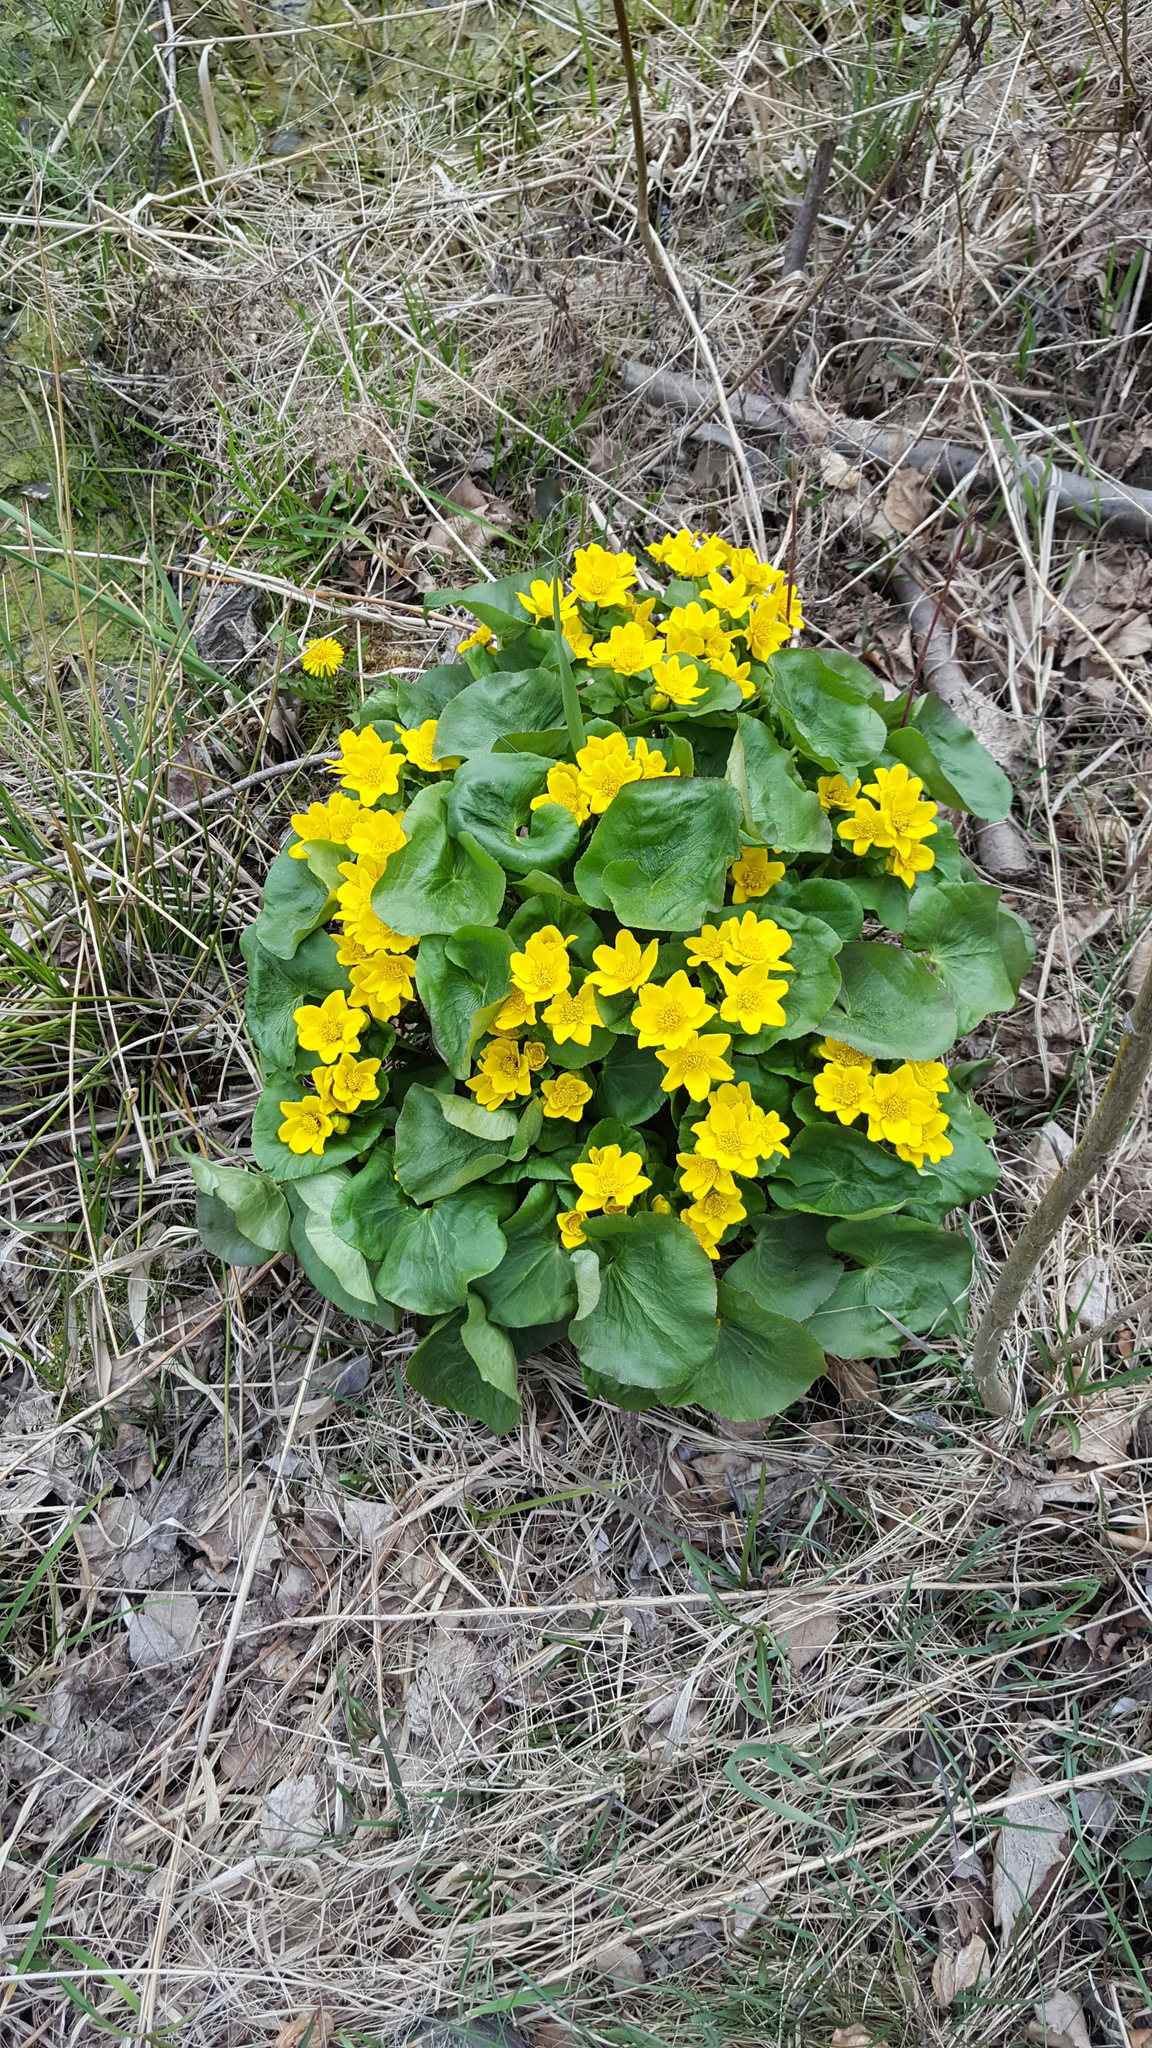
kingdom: Plantae
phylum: Tracheophyta
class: Magnoliopsida
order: Ranunculales
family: Ranunculaceae
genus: Caltha
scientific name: Caltha palustris
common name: Marsh marigold
